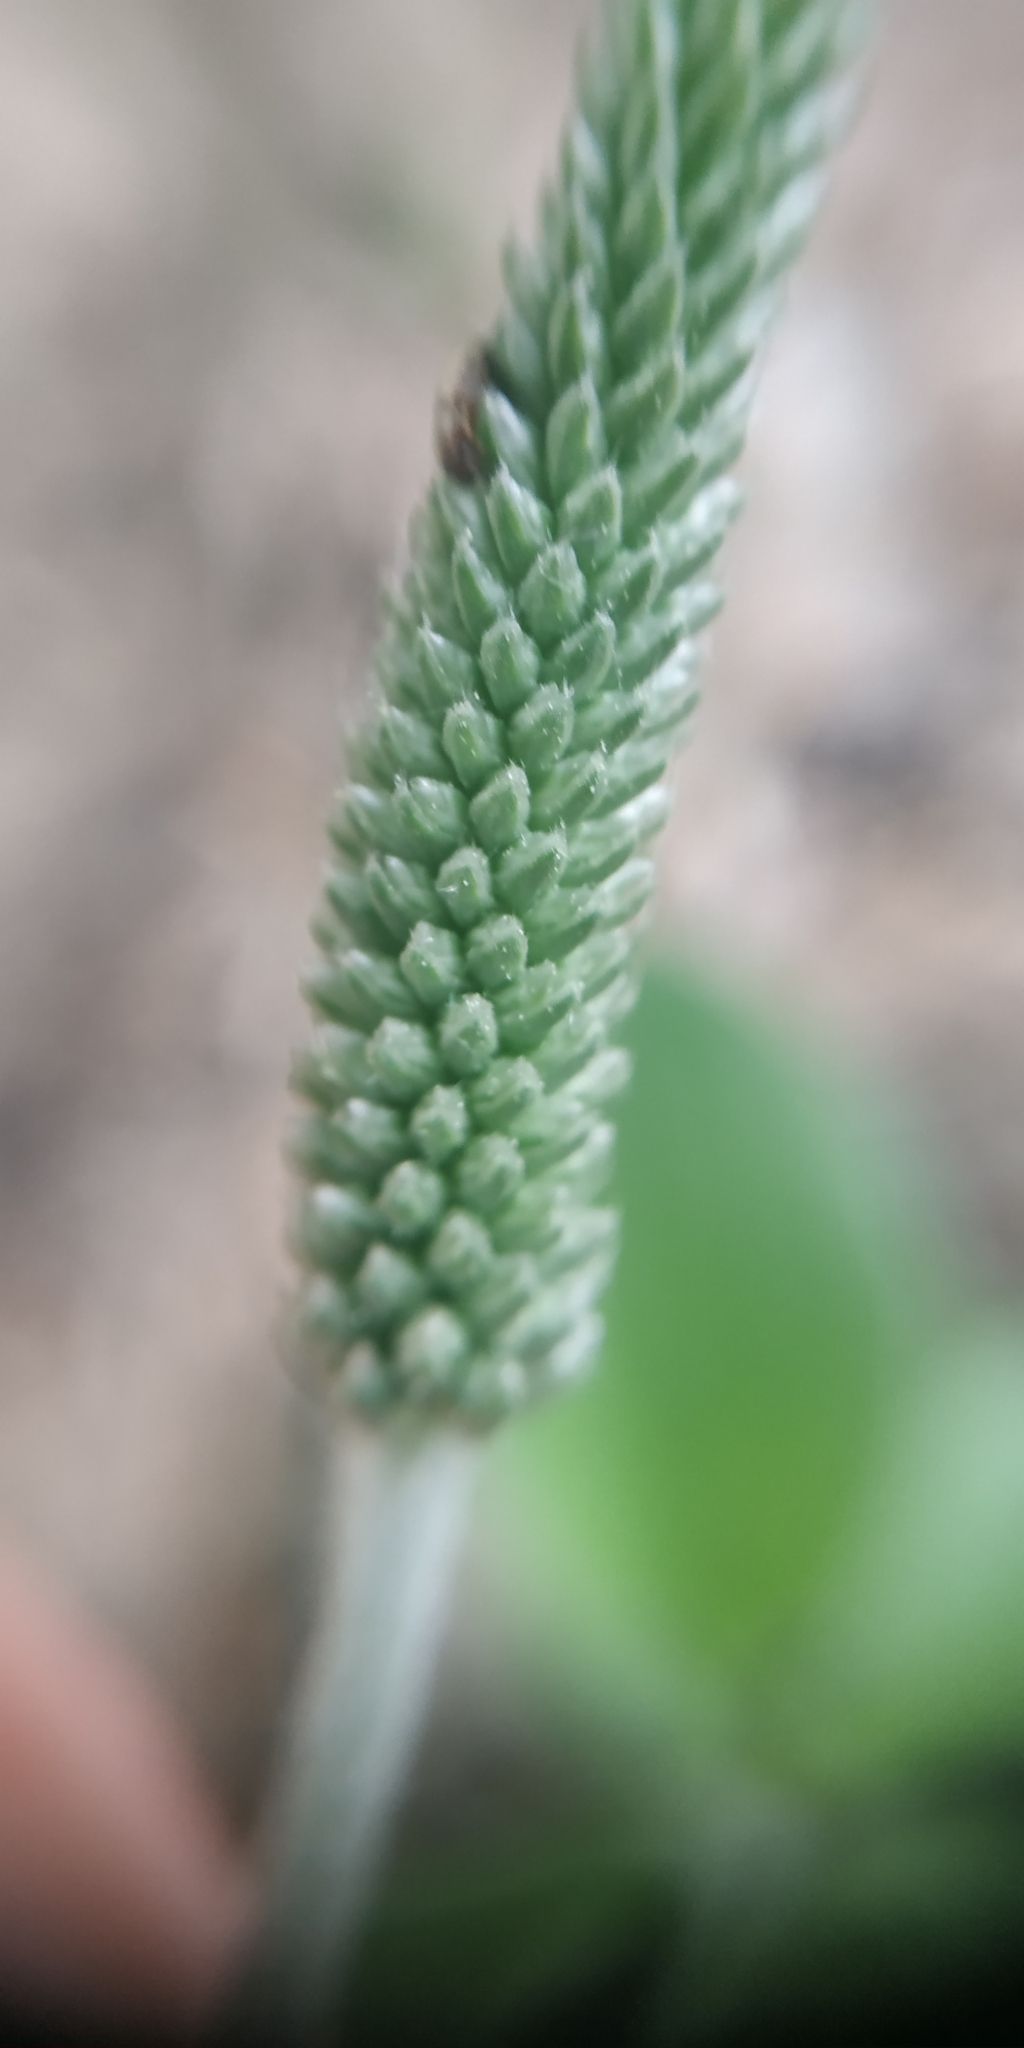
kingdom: Plantae
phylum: Tracheophyta
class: Magnoliopsida
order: Lamiales
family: Plantaginaceae
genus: Plantago
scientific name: Plantago media
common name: Hoary plantain
